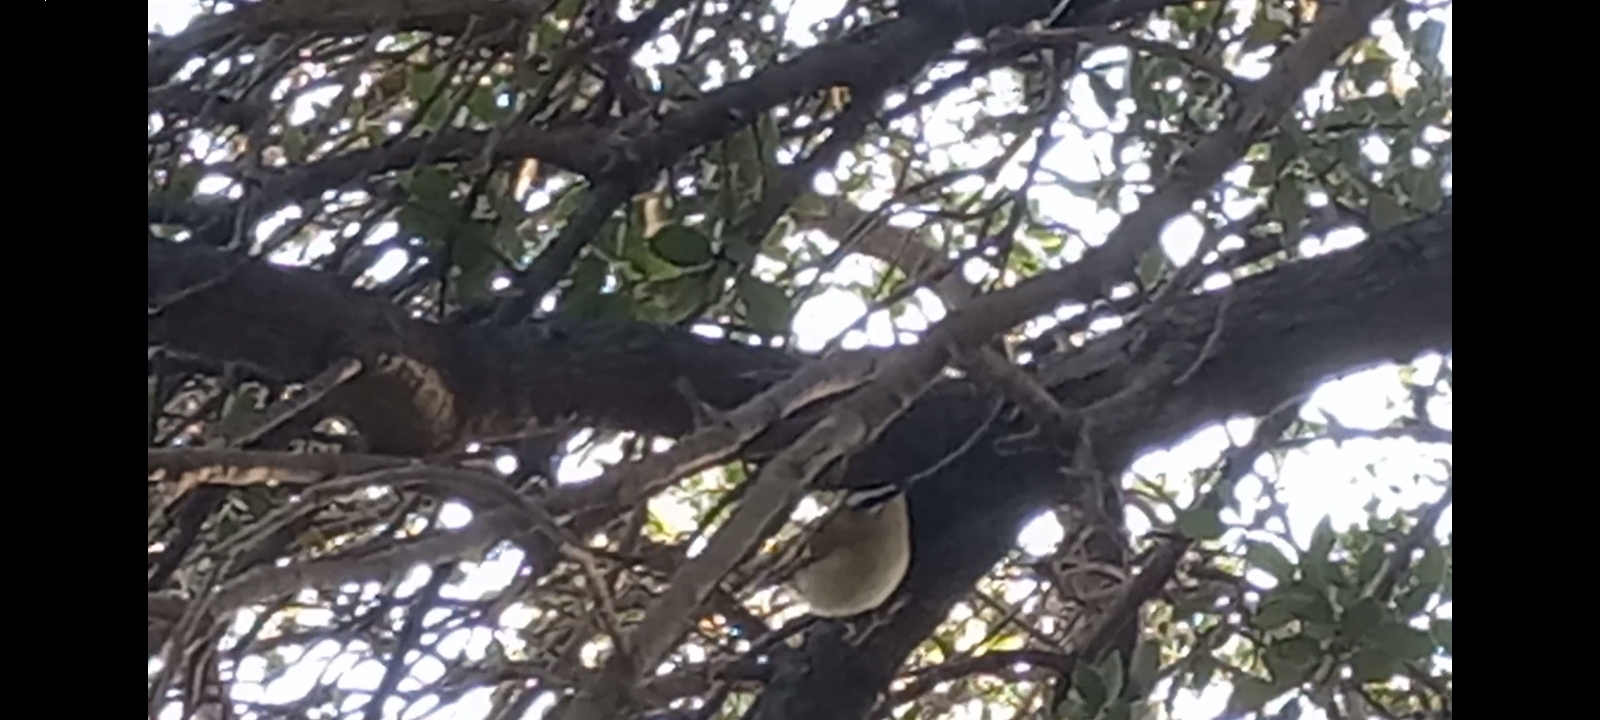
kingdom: Animalia
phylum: Chordata
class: Aves
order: Passeriformes
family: Regulidae
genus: Regulus
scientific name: Regulus ignicapilla
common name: Firecrest
